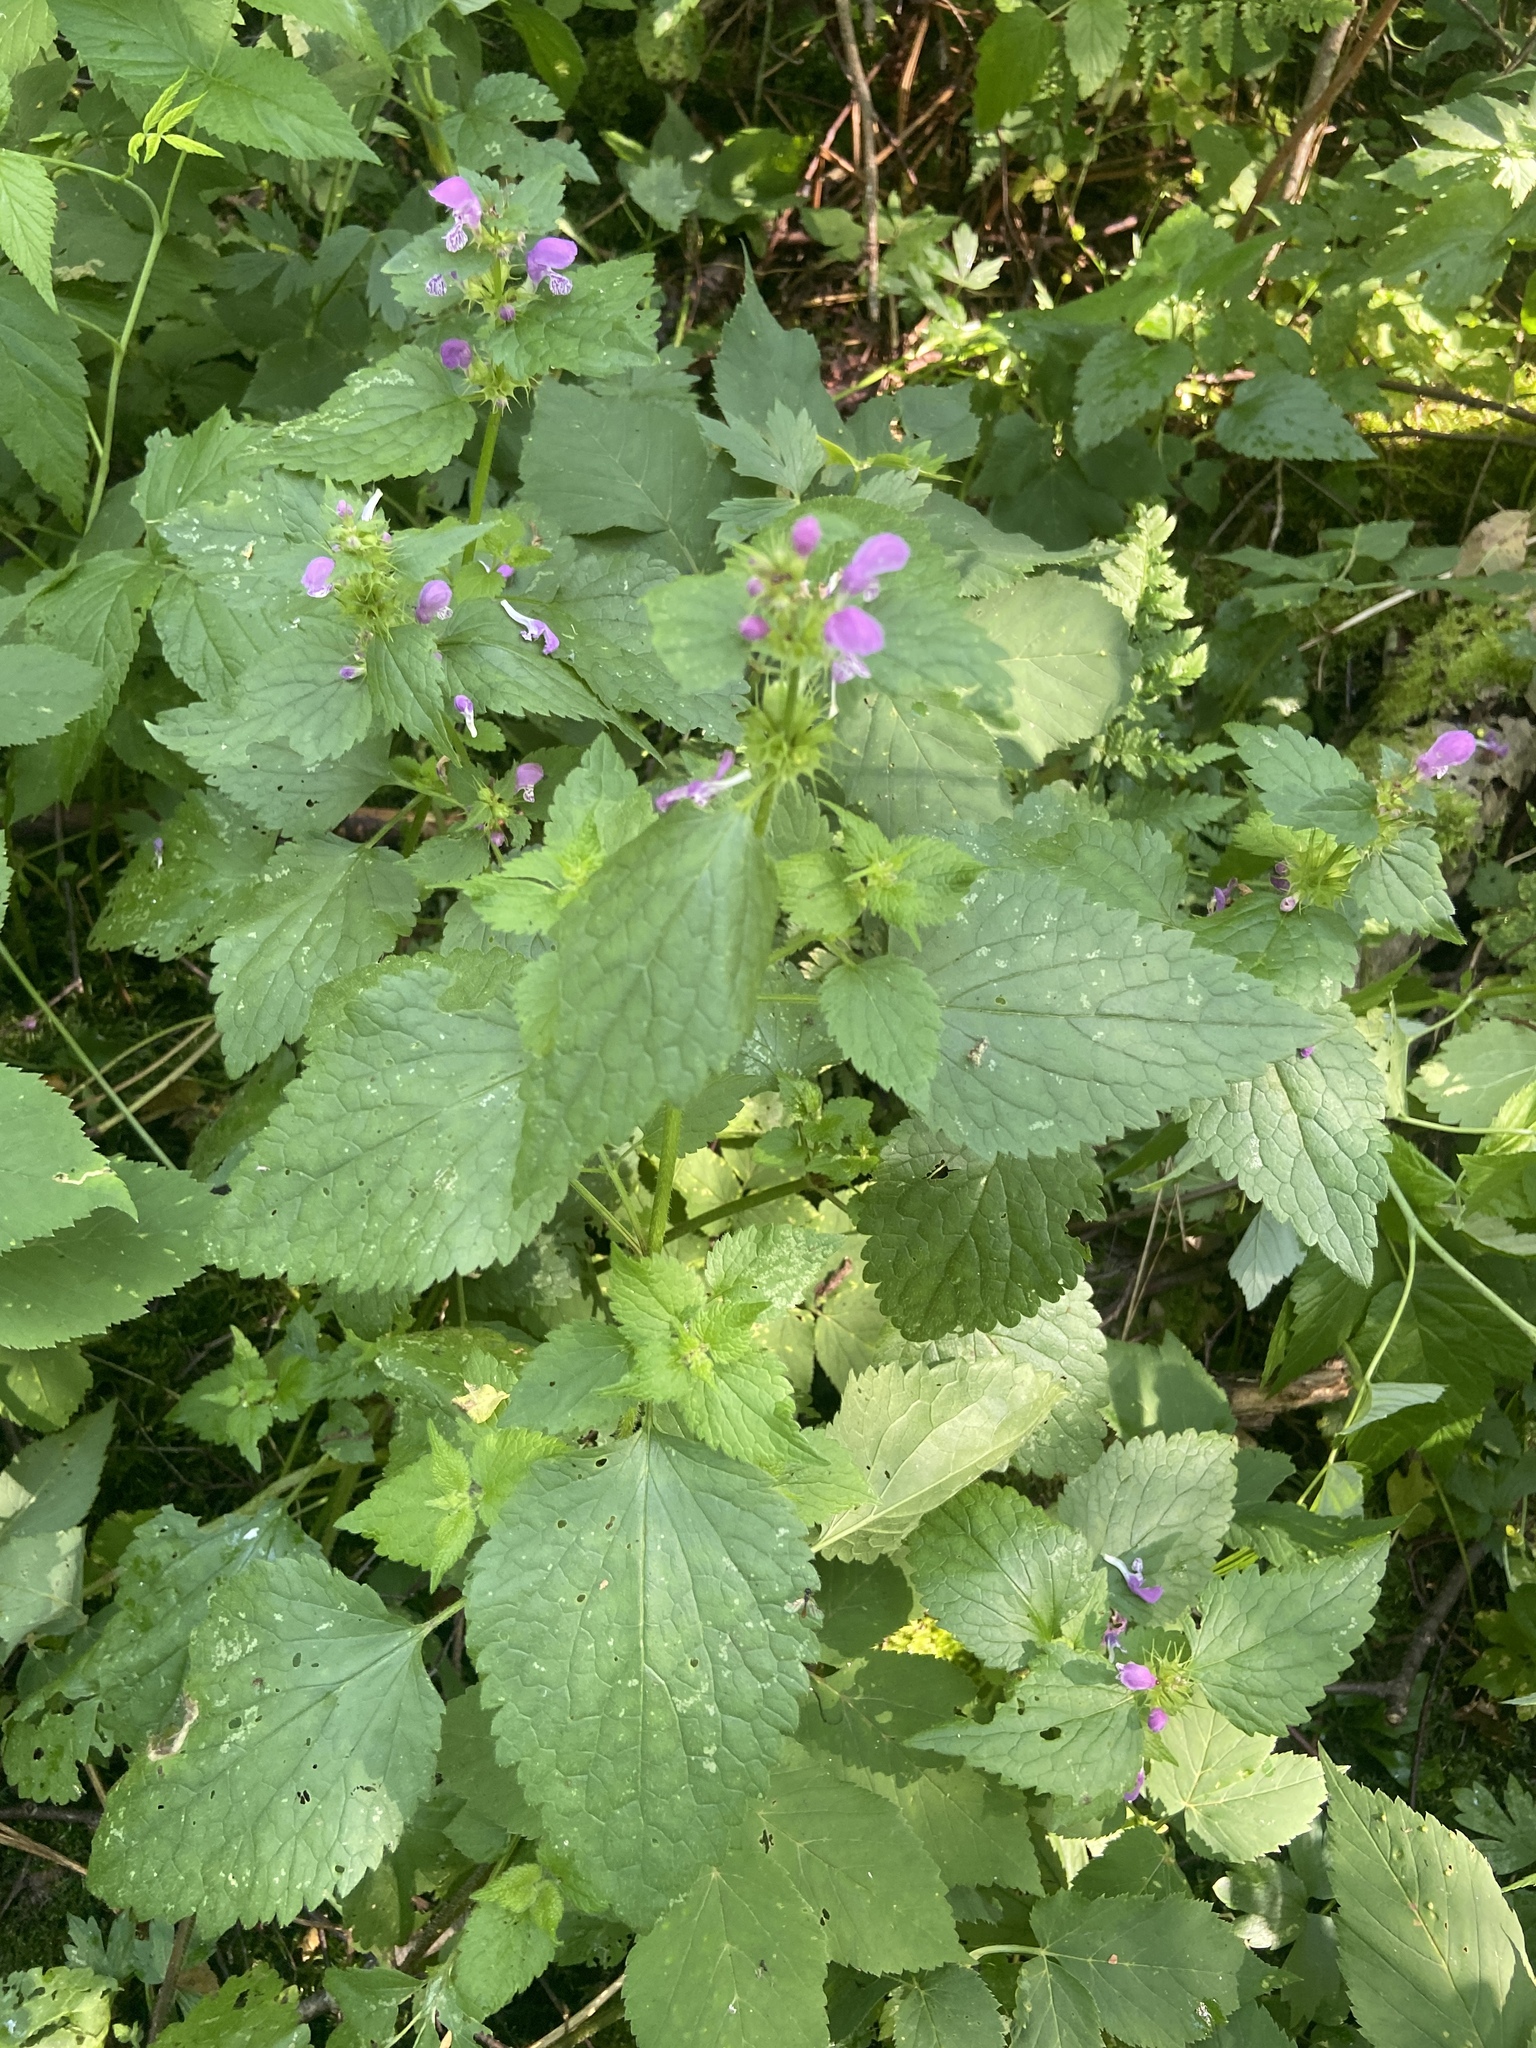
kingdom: Plantae
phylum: Tracheophyta
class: Magnoliopsida
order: Lamiales
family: Lamiaceae
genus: Lamium
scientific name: Lamium maculatum
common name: Spotted dead-nettle
